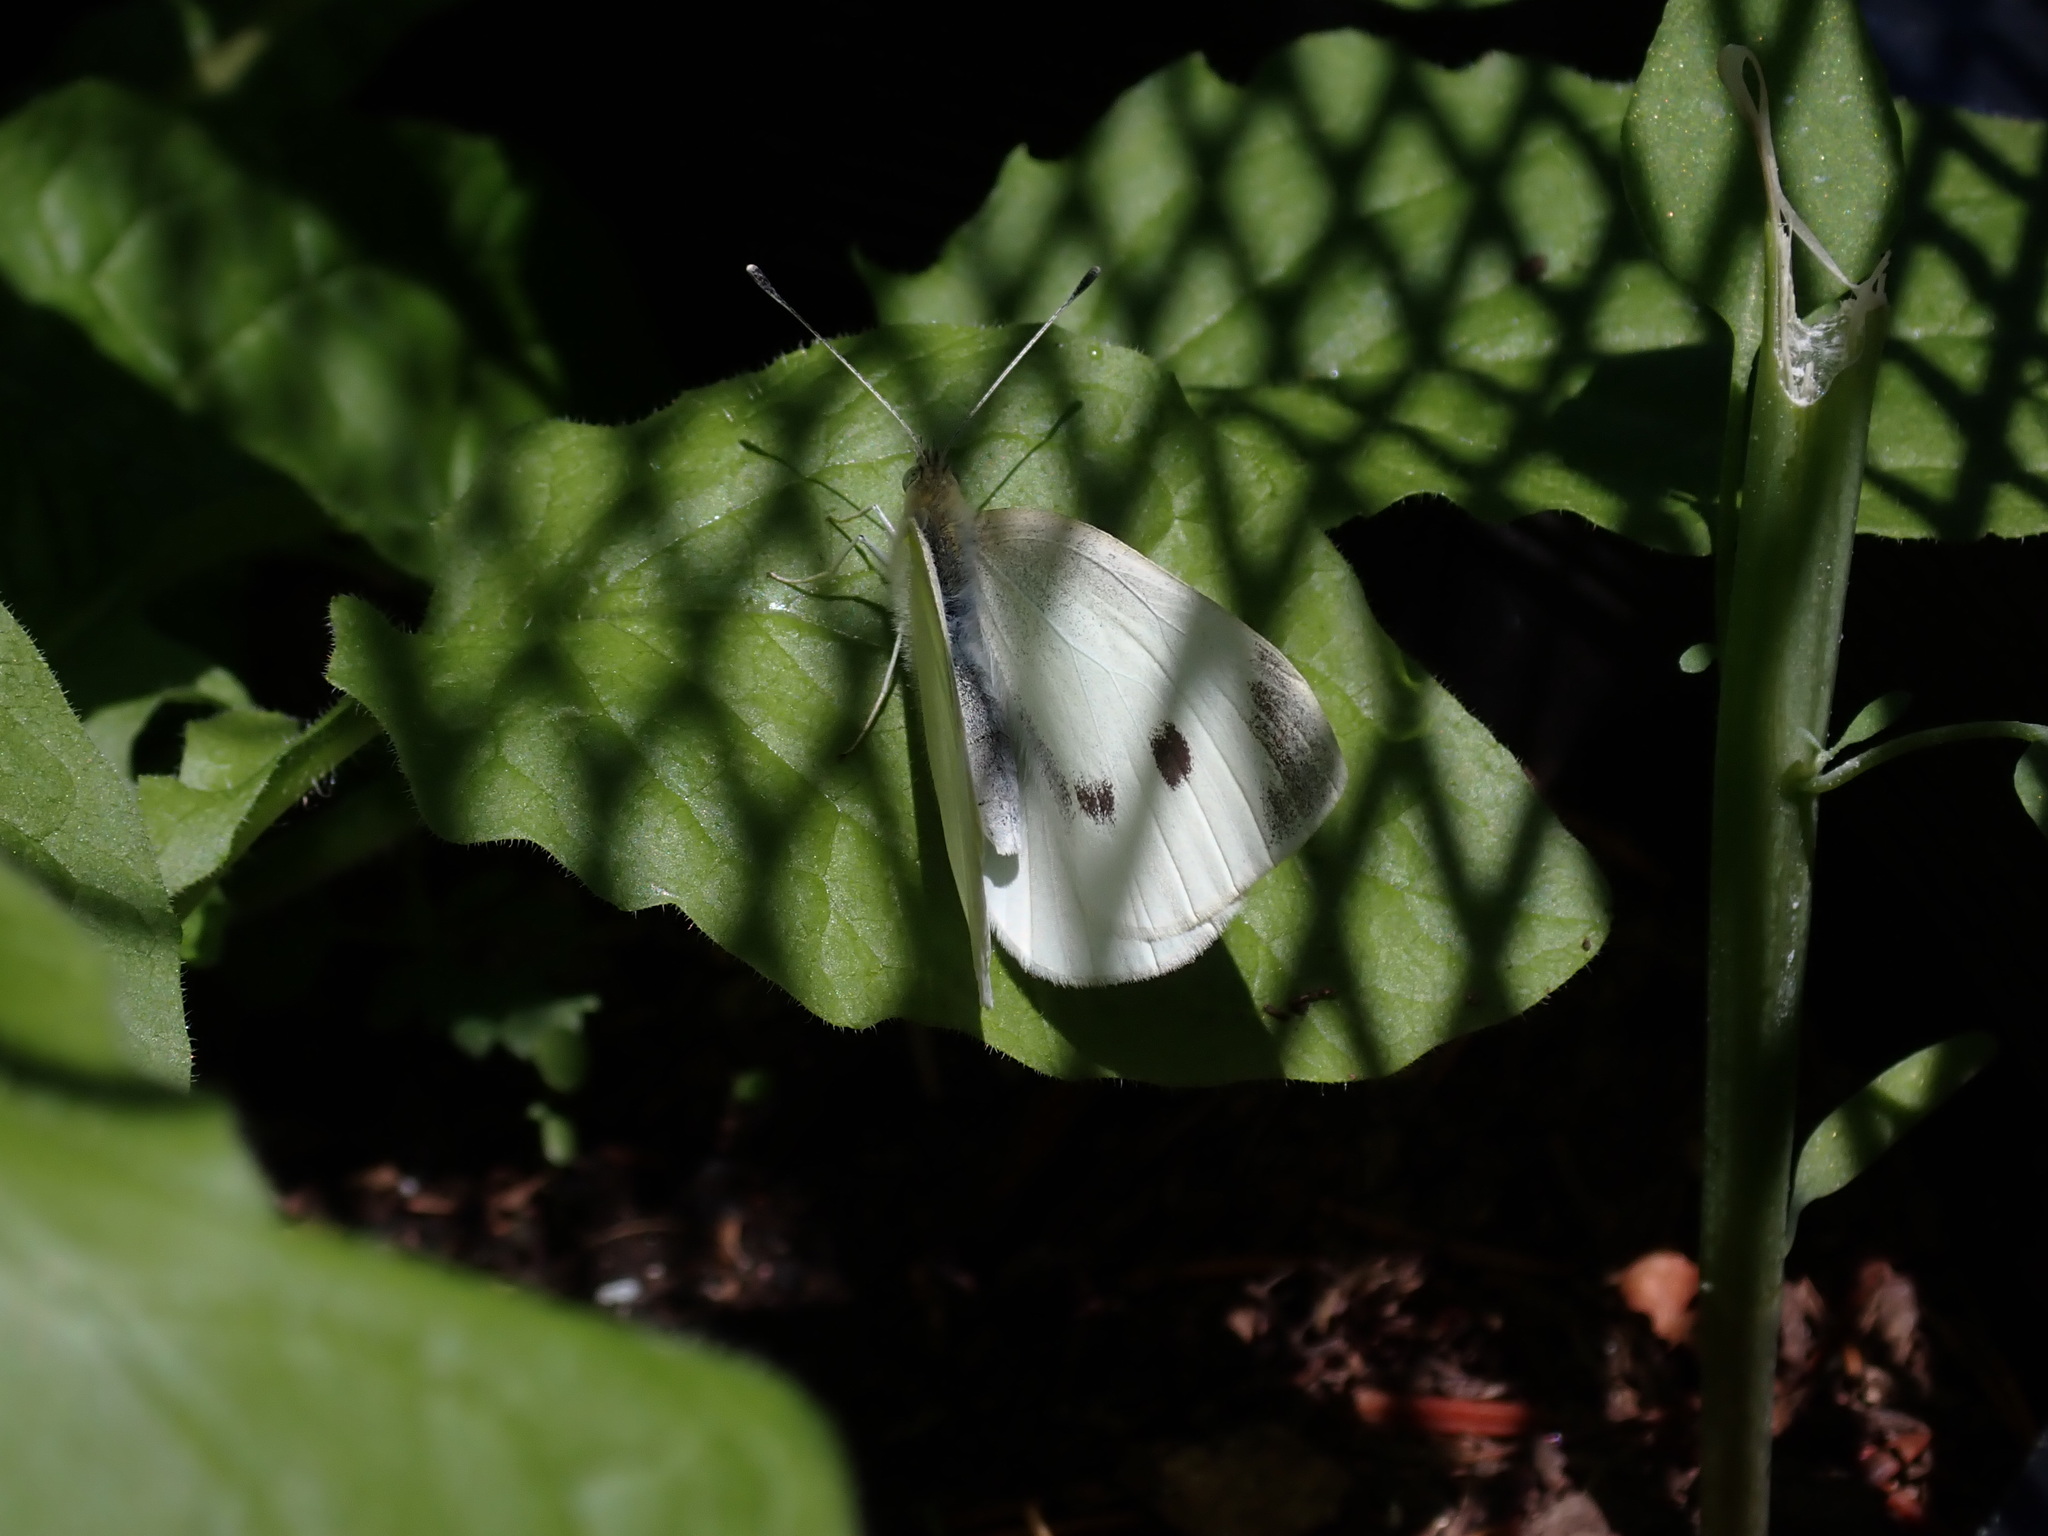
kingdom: Animalia
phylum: Arthropoda
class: Insecta
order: Lepidoptera
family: Pieridae
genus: Pieris
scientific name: Pieris rapae
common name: Small white
